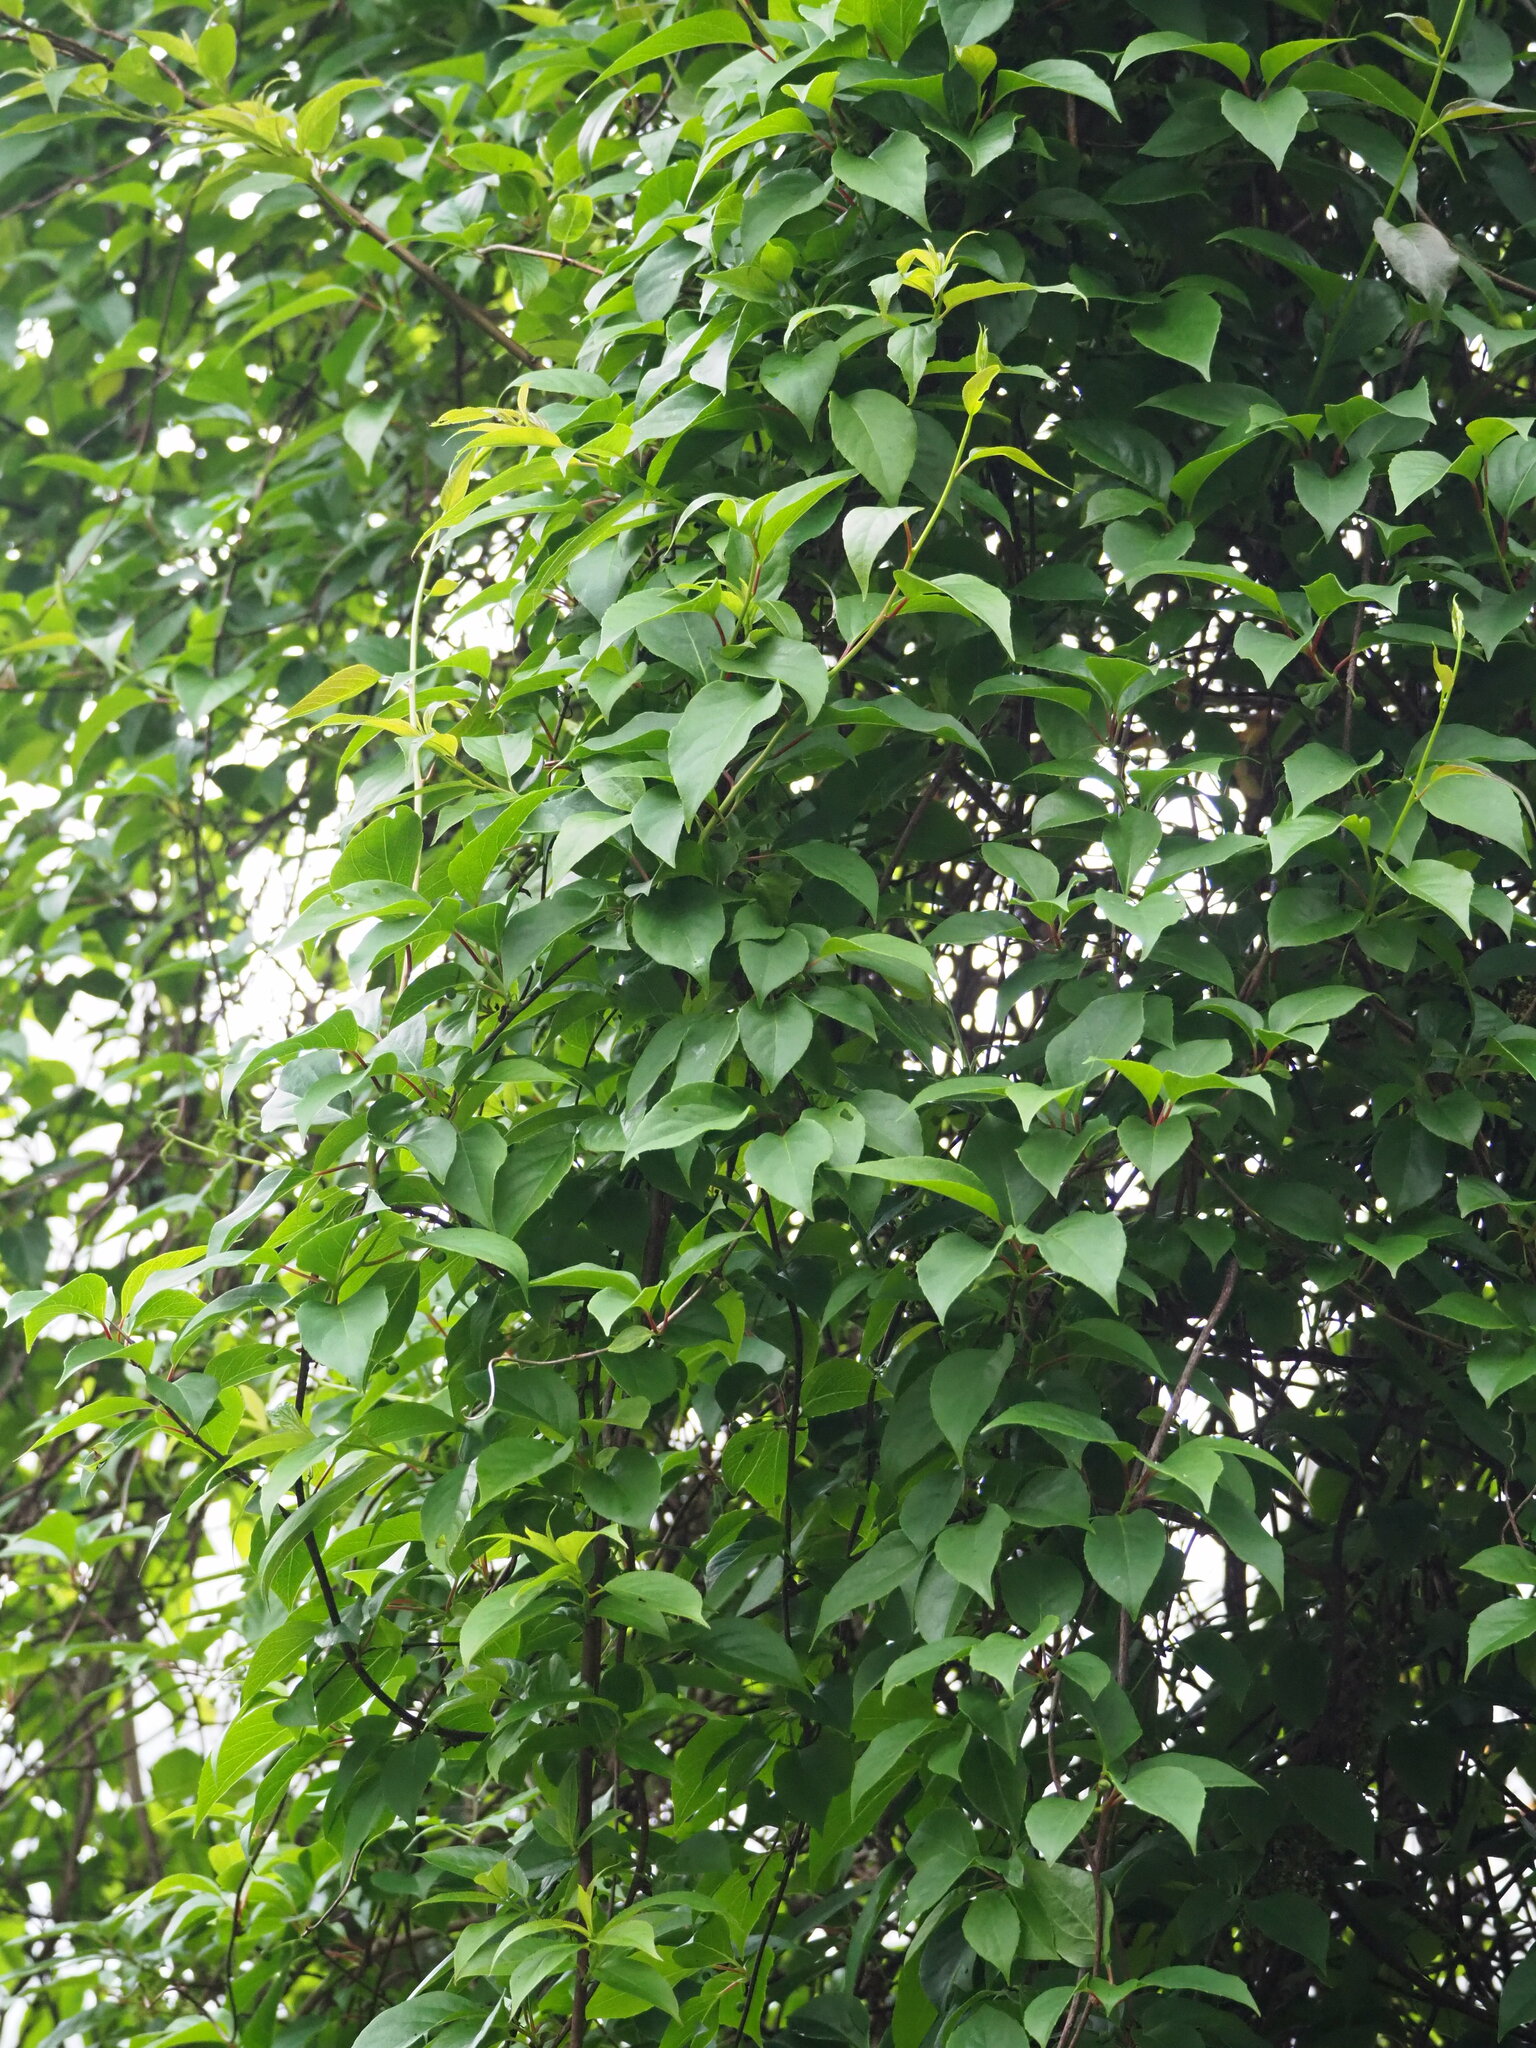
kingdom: Plantae
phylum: Tracheophyta
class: Magnoliopsida
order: Austrobaileyales
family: Schisandraceae
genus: Schisandra
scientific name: Schisandra arisanensis
